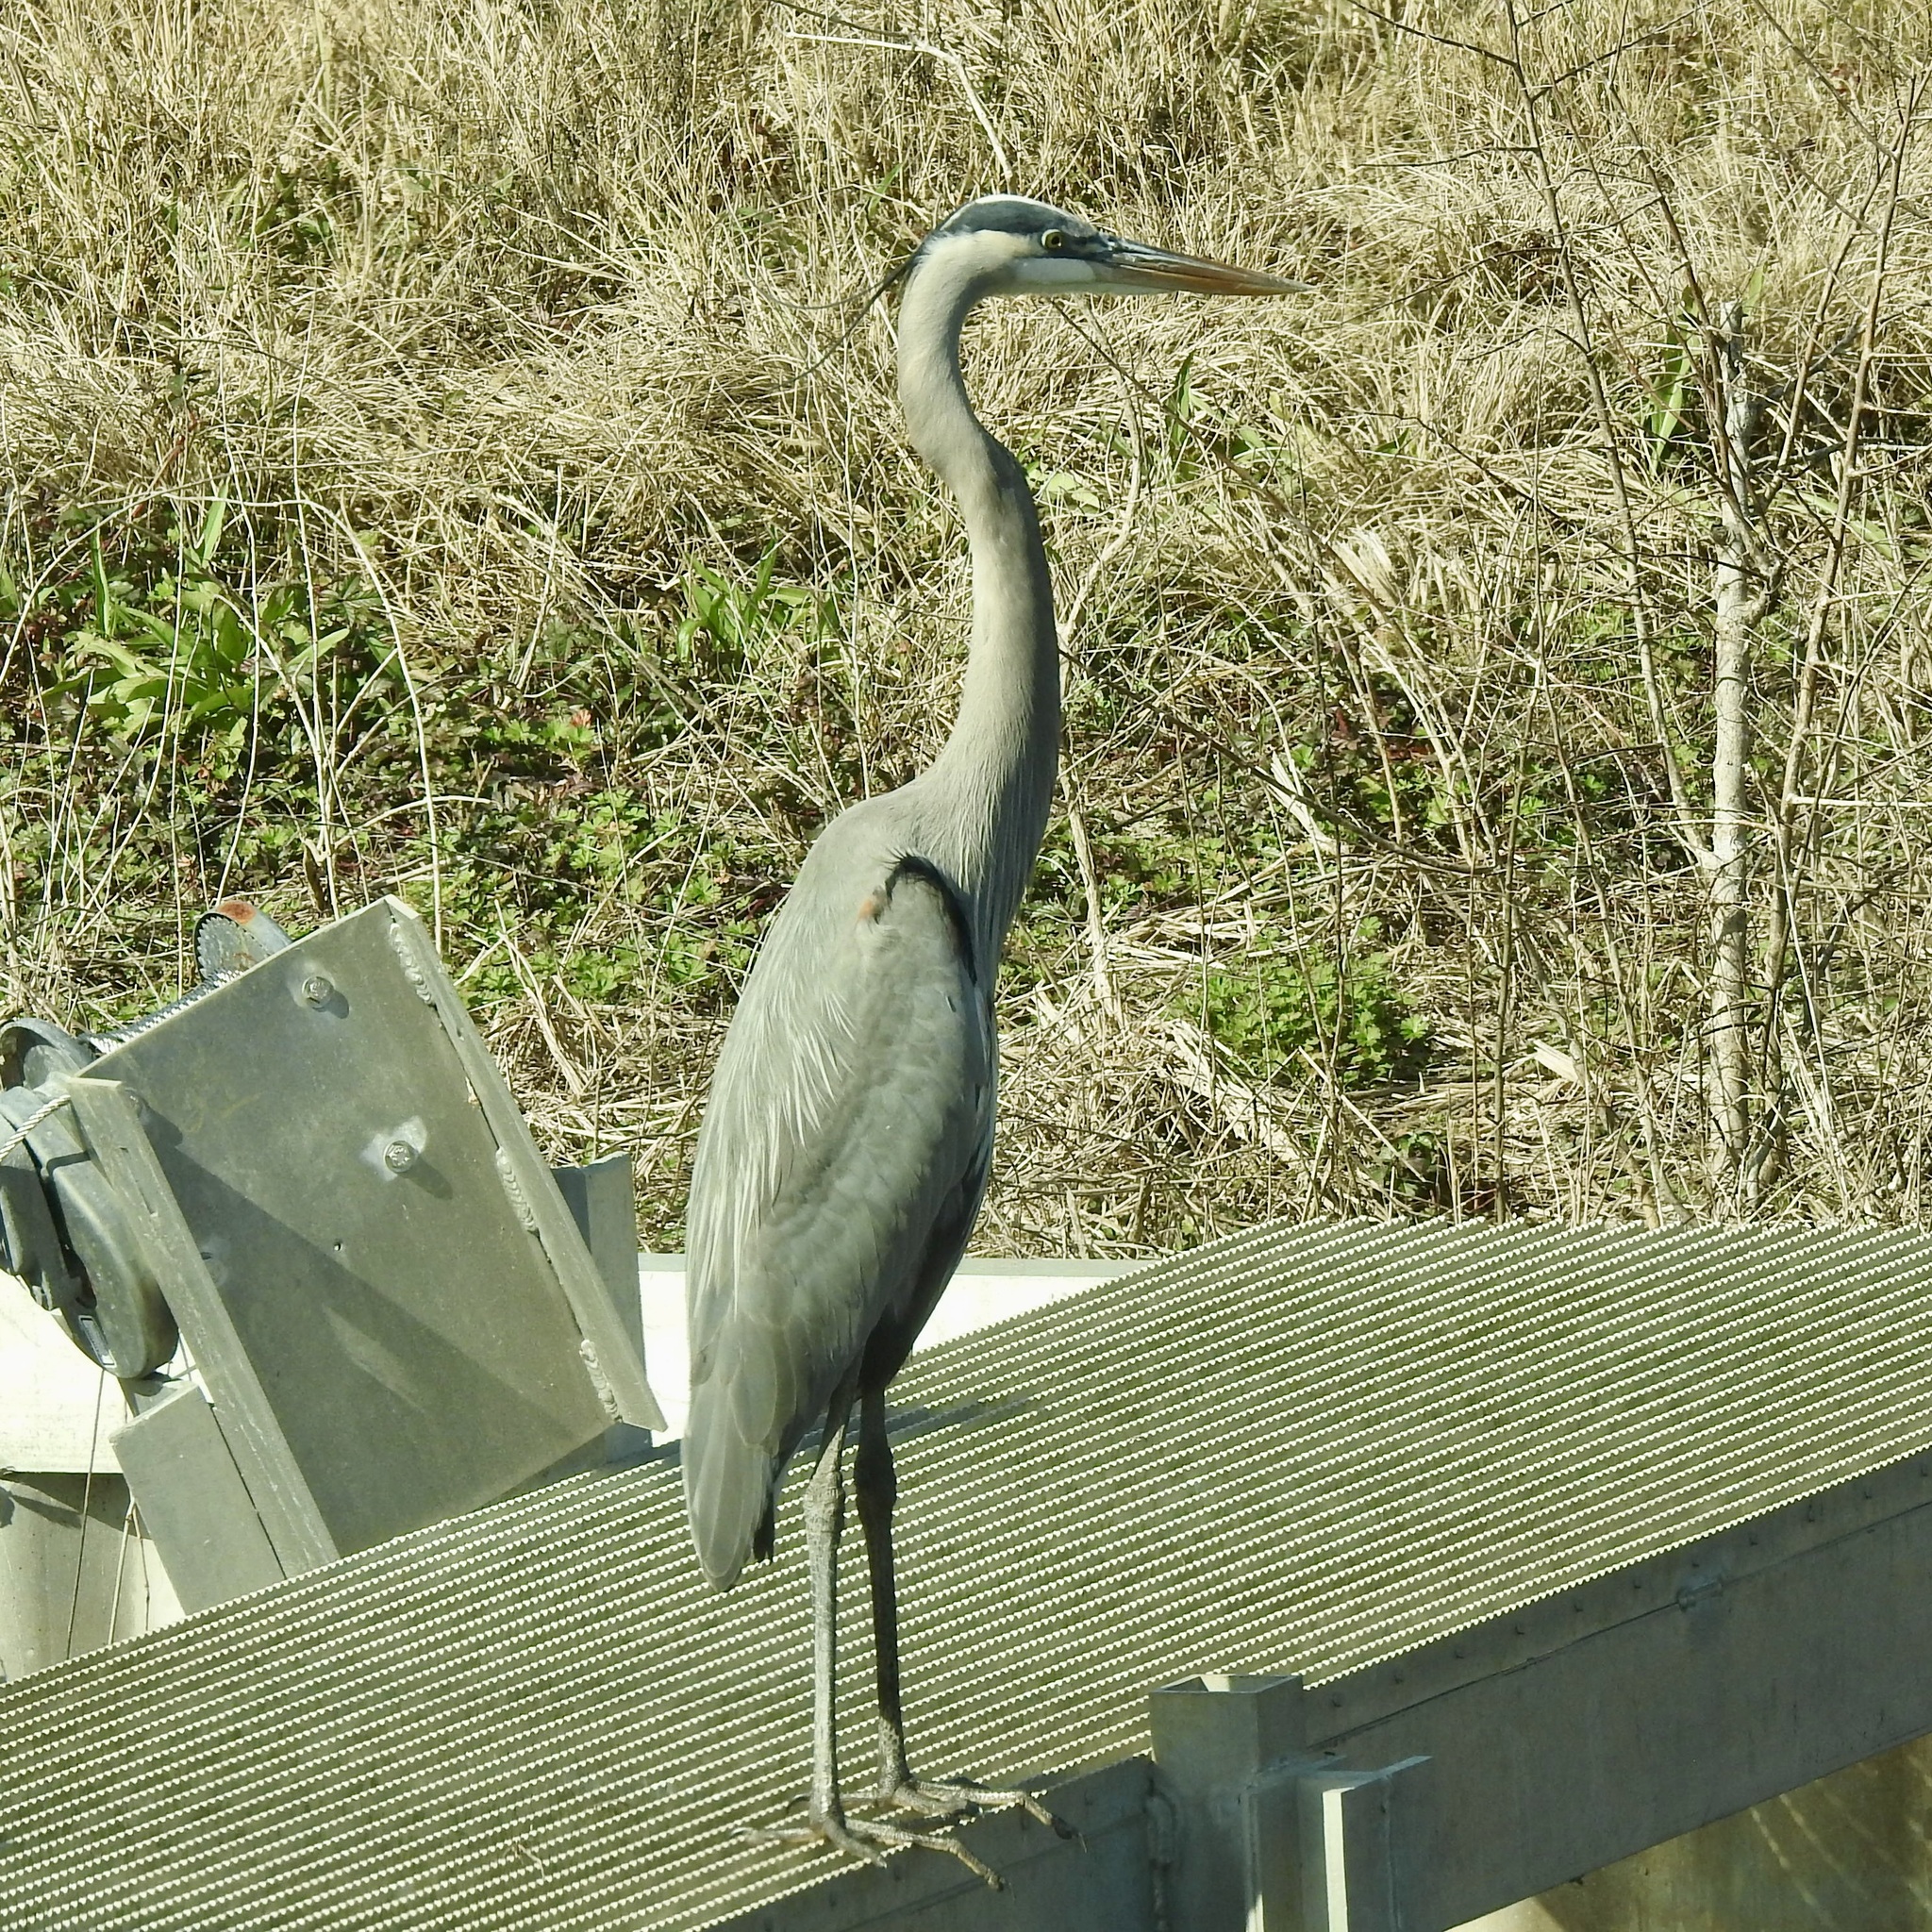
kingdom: Animalia
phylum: Chordata
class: Aves
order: Pelecaniformes
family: Ardeidae
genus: Ardea
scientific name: Ardea herodias
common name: Great blue heron
